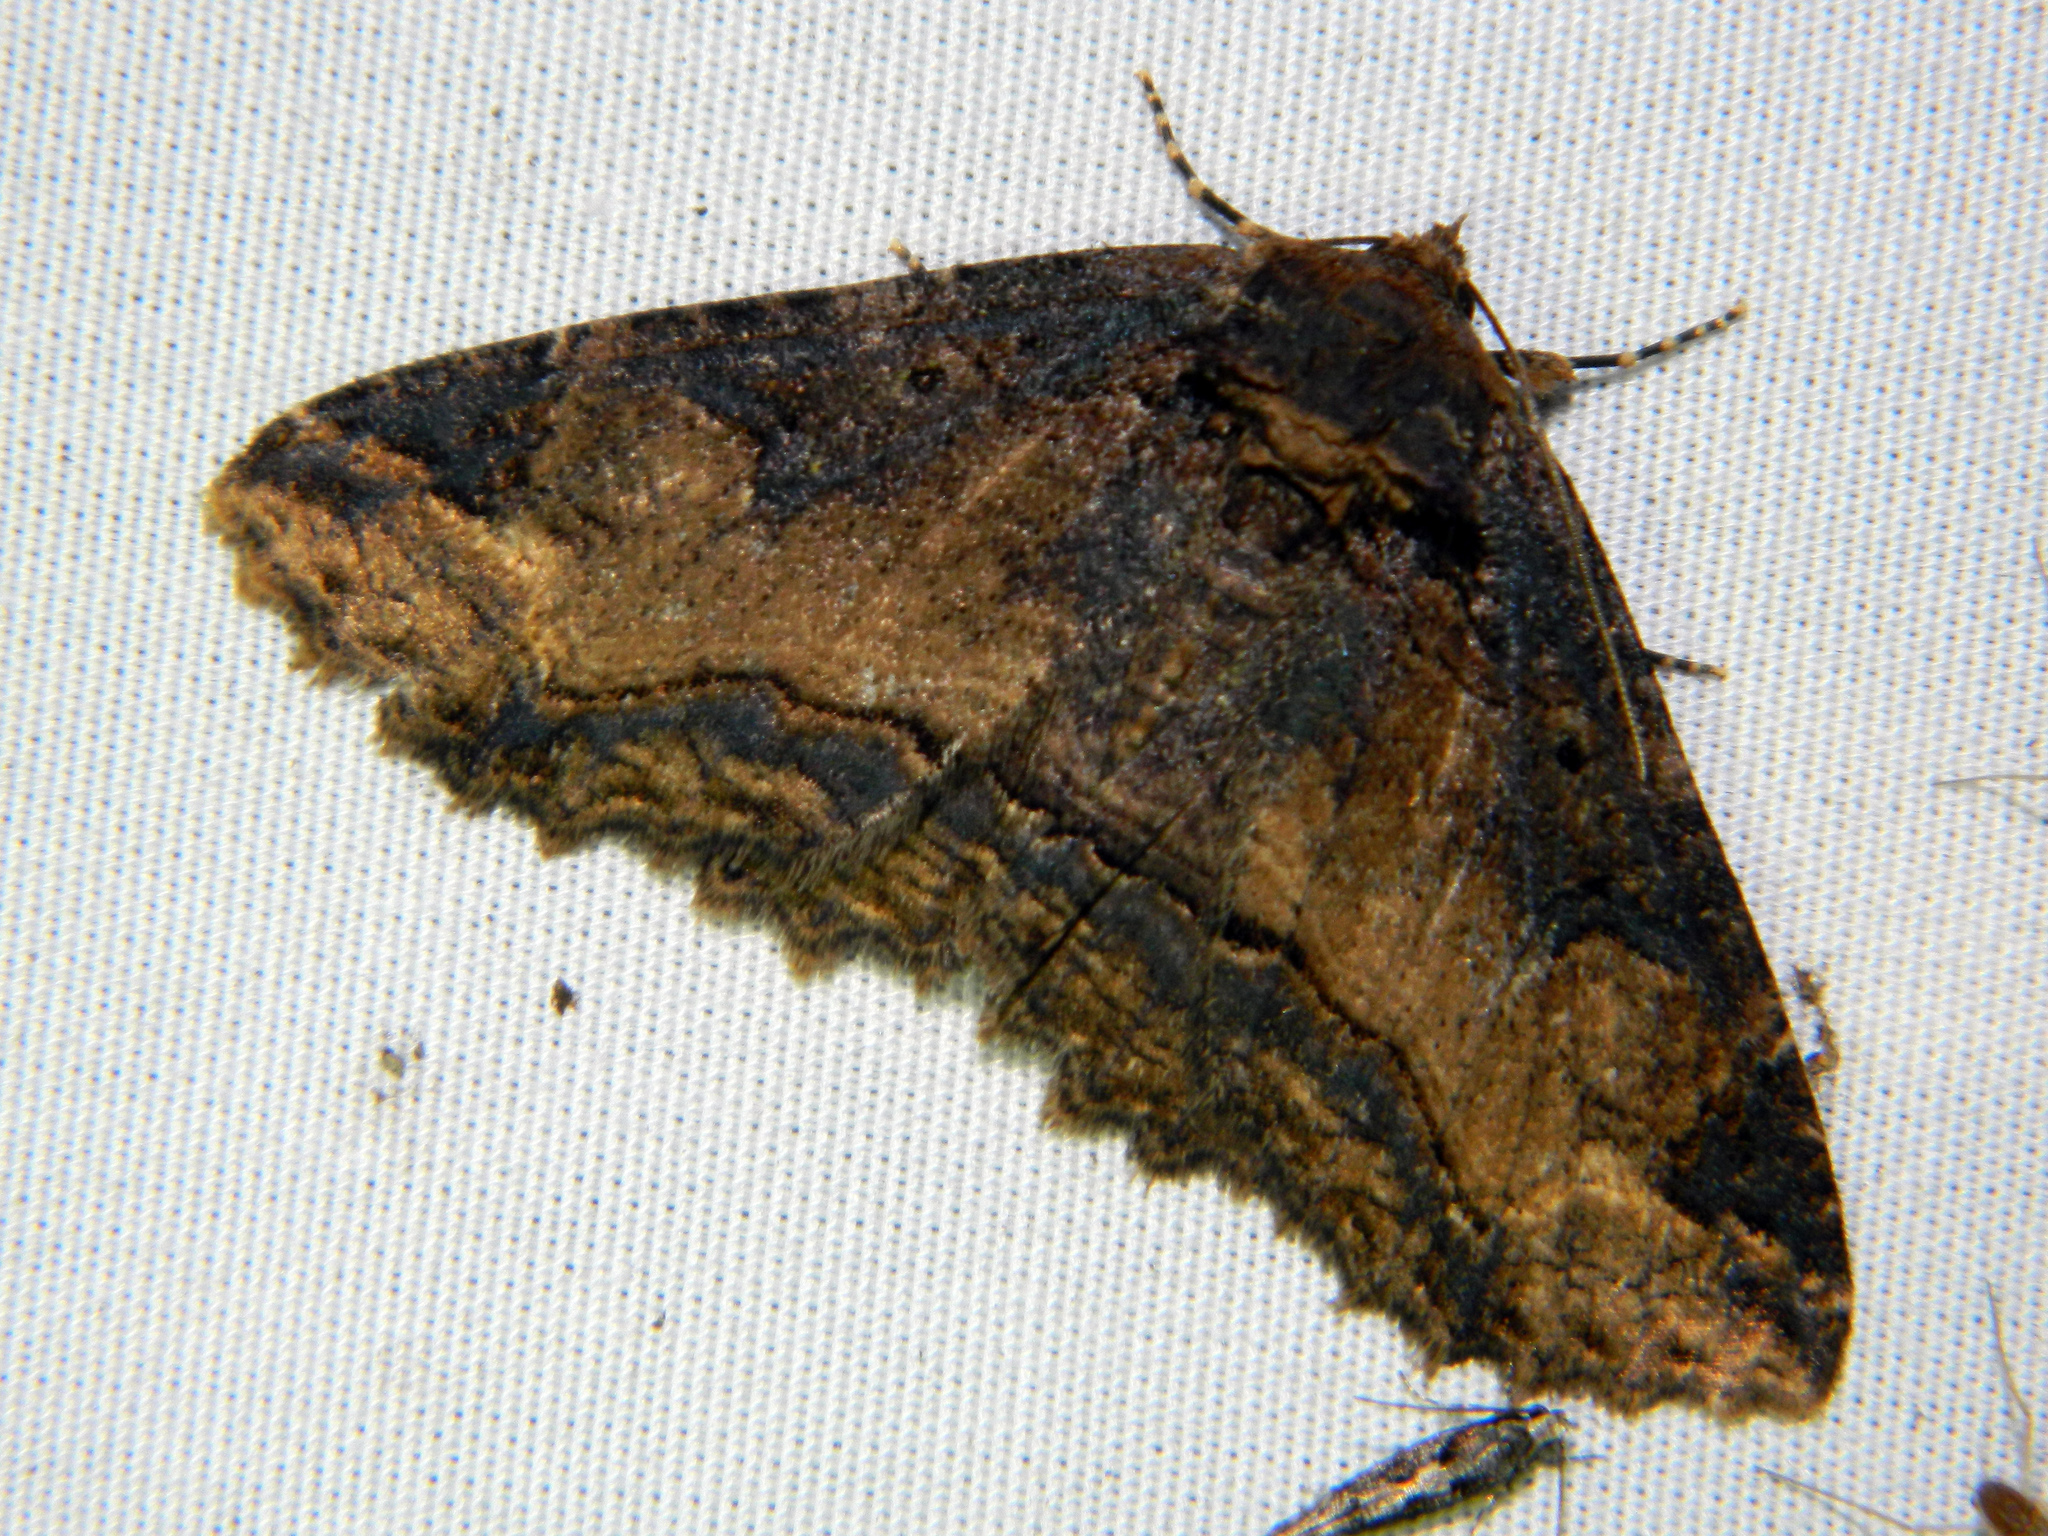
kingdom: Animalia
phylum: Arthropoda
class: Insecta
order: Lepidoptera
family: Erebidae
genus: Zale
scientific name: Zale minerea
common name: Colorful zale moth
